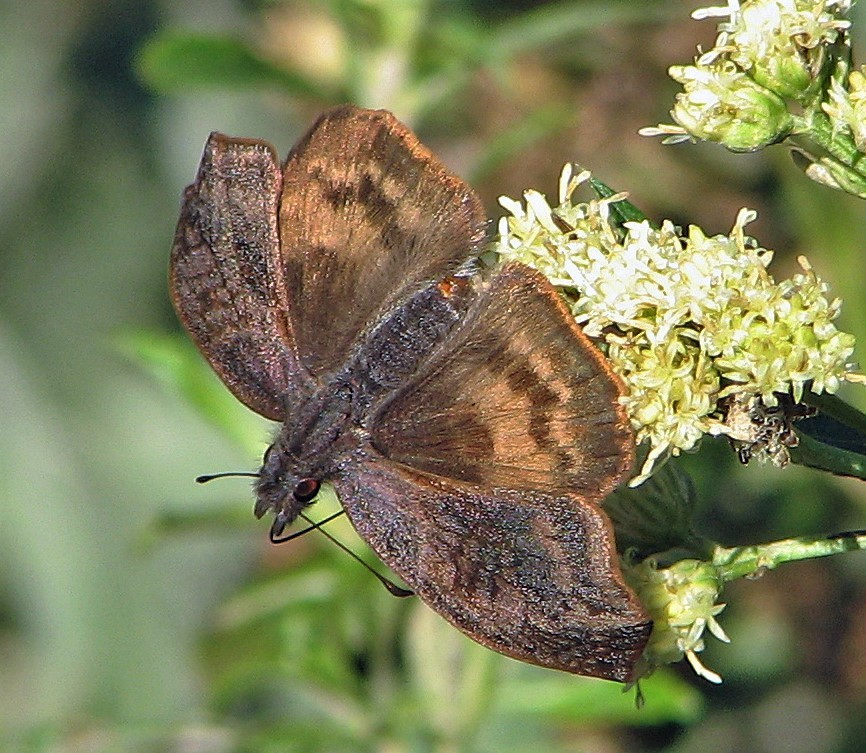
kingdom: Animalia
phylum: Arthropoda
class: Insecta
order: Lepidoptera
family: Hesperiidae
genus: Theagenes
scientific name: Theagenes dichrous
